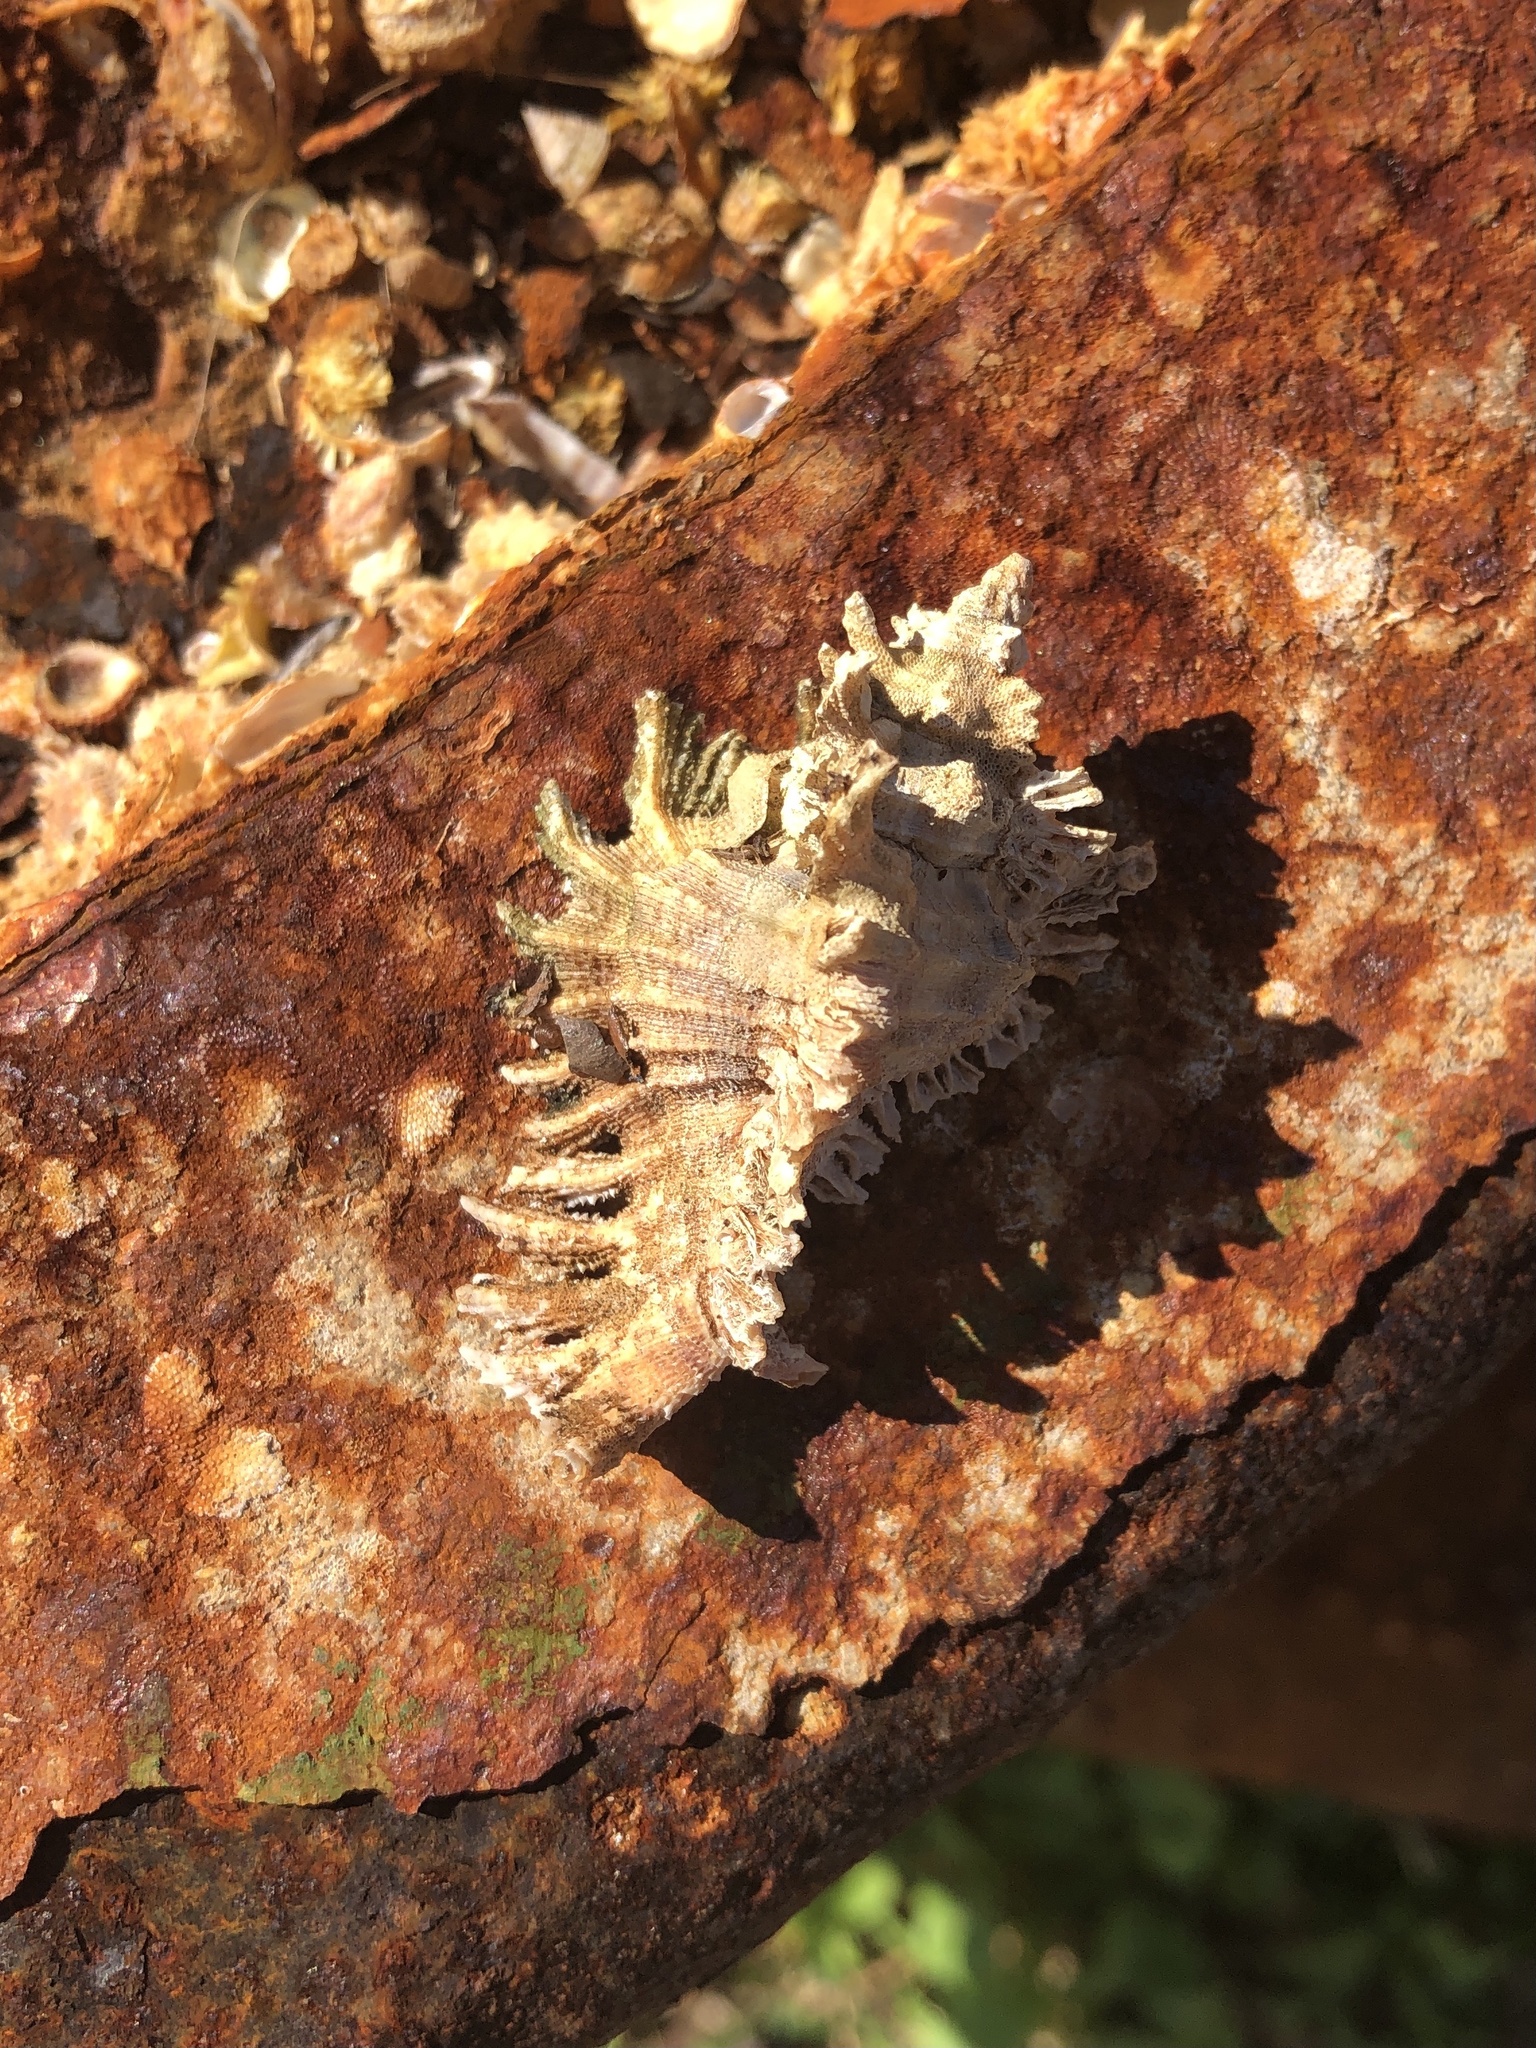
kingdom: Animalia
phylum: Mollusca
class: Gastropoda
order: Neogastropoda
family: Muricidae
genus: Chicoreus
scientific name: Chicoreus florifer
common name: Flowery lace murex
